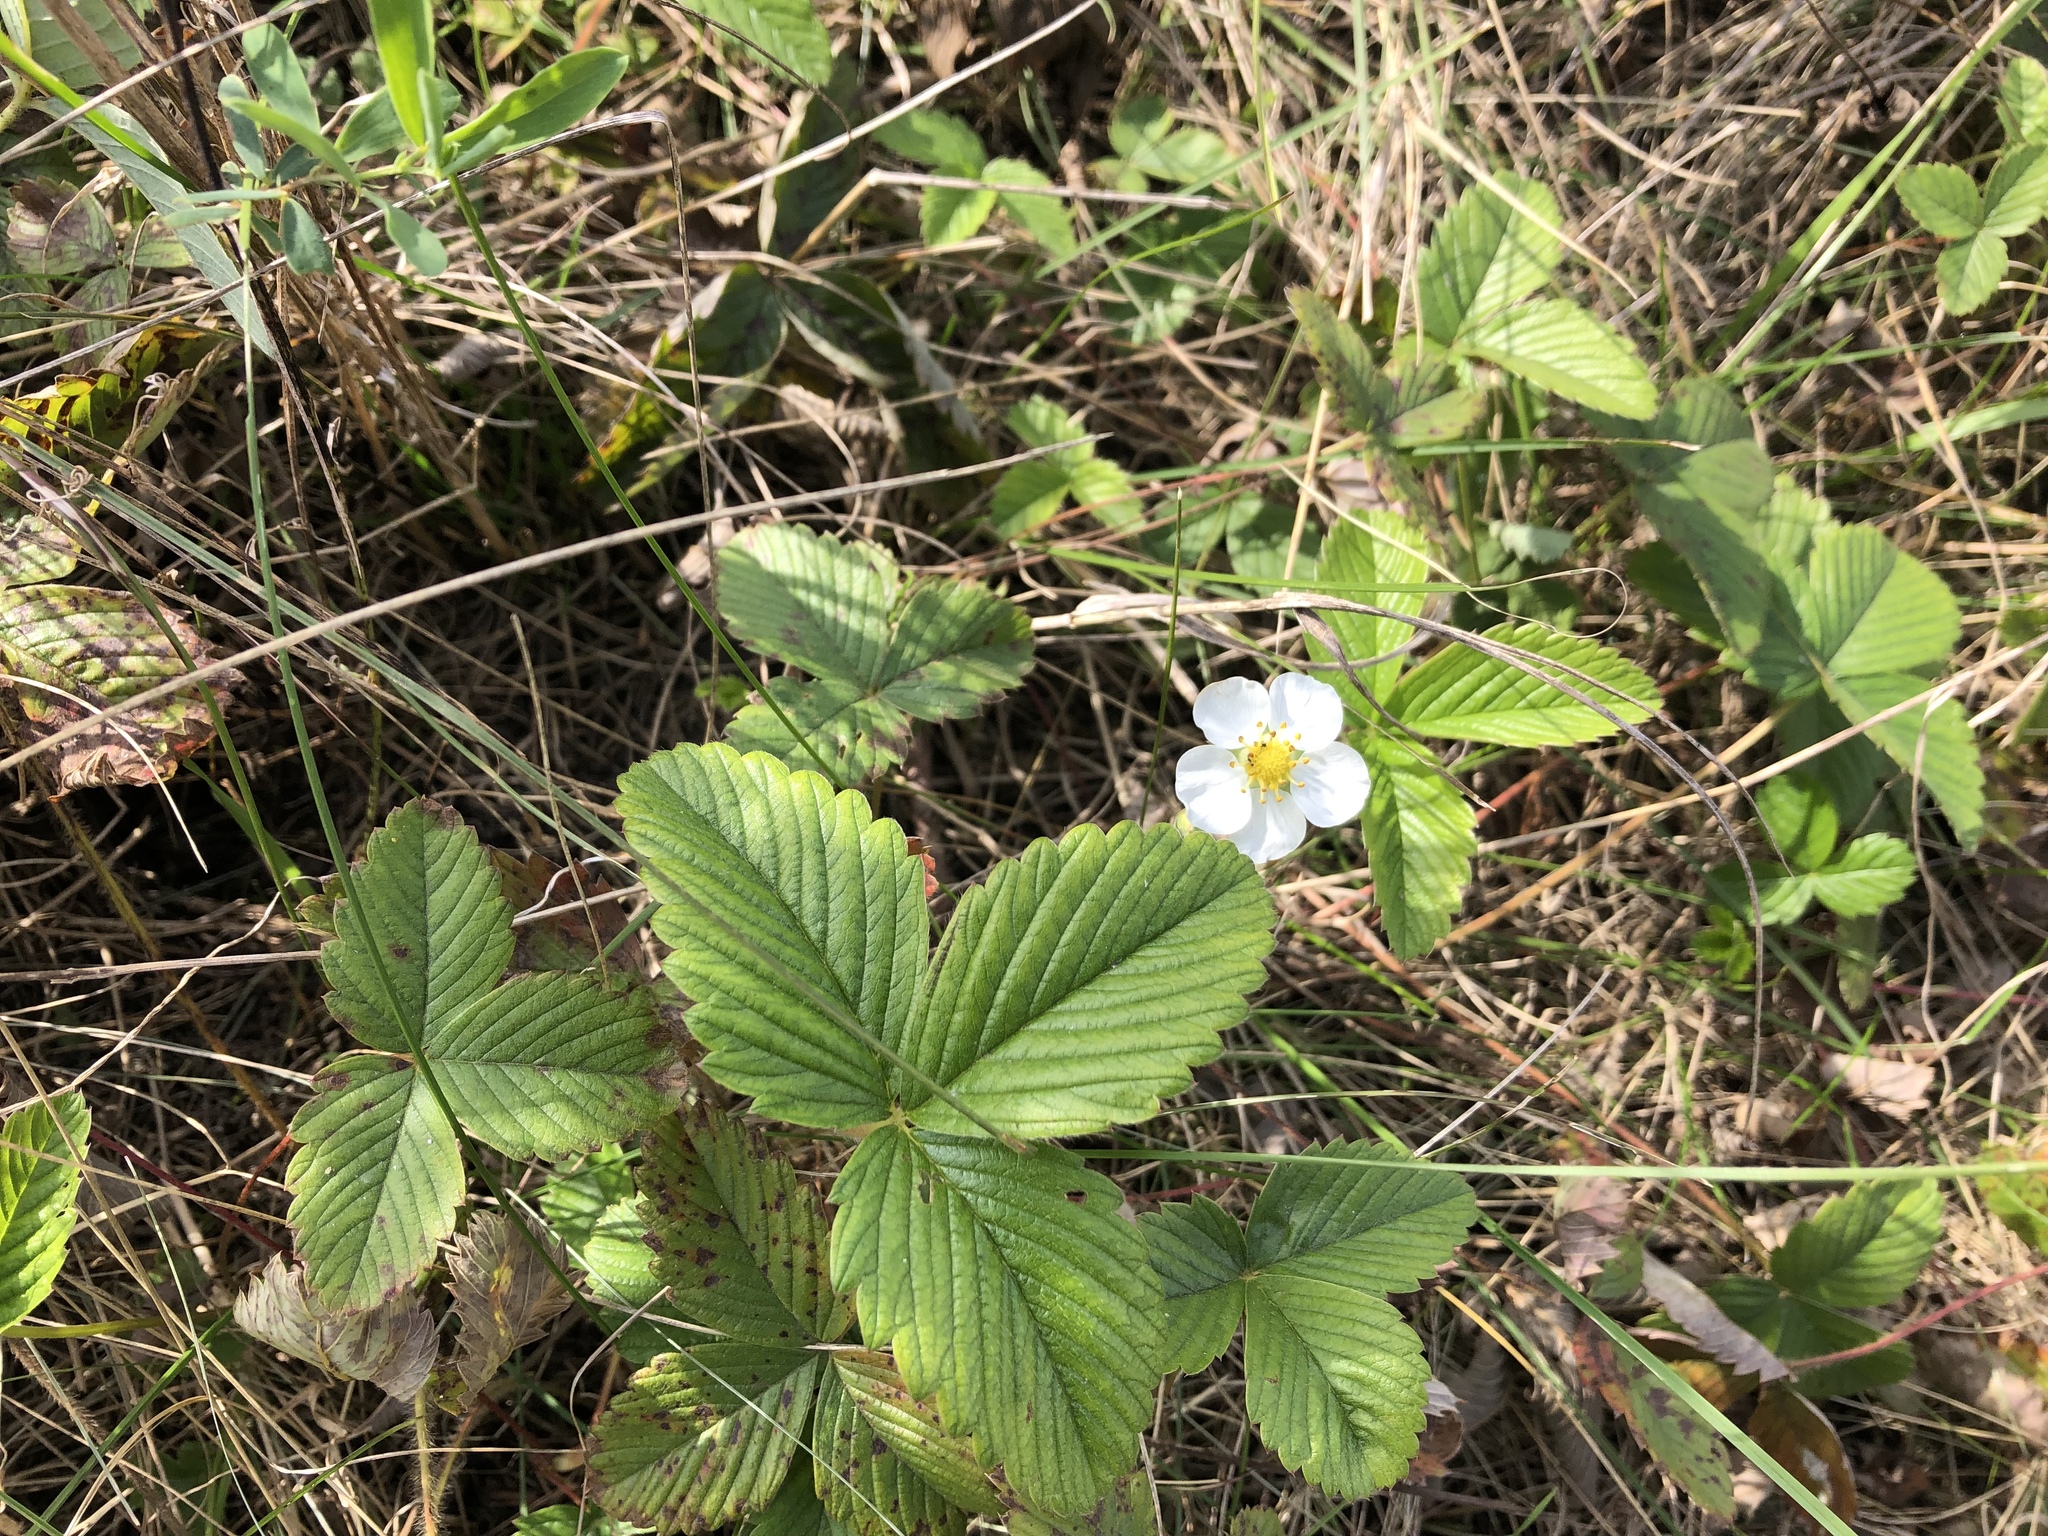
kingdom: Plantae
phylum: Tracheophyta
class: Magnoliopsida
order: Rosales
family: Rosaceae
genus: Fragaria
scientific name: Fragaria vesca
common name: Wild strawberry
